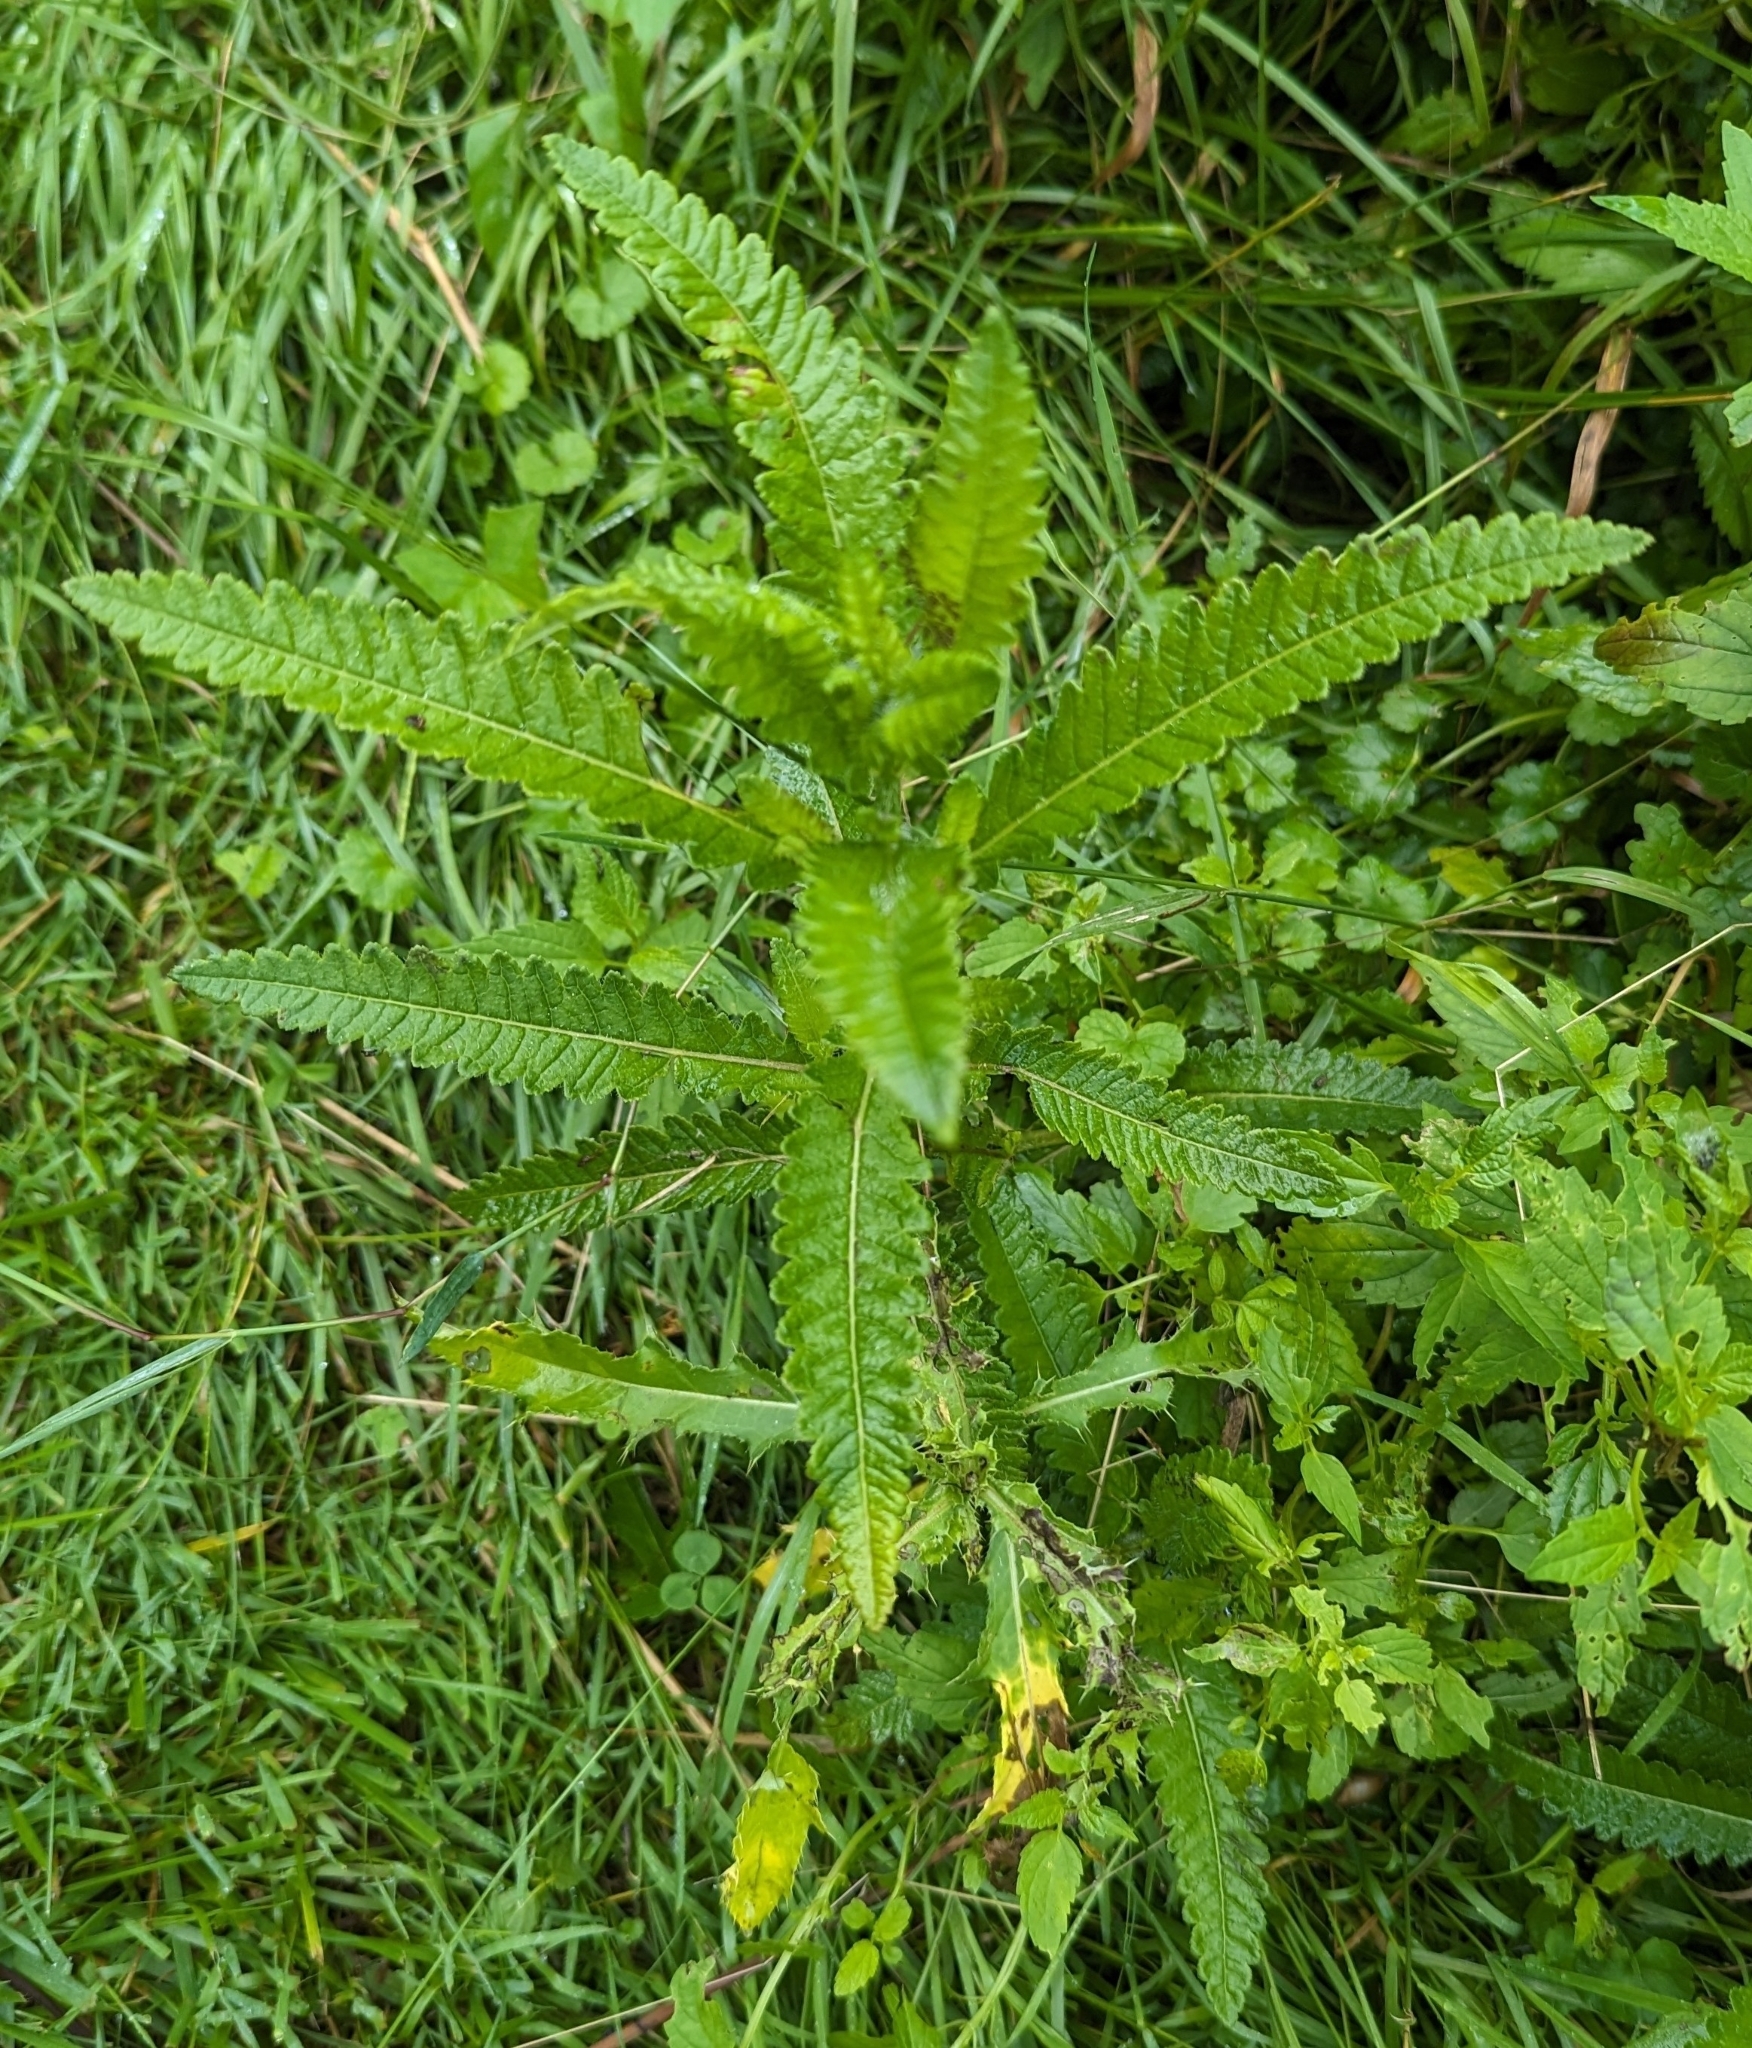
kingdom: Plantae
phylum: Tracheophyta
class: Magnoliopsida
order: Lamiales
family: Orobanchaceae
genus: Pedicularis
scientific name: Pedicularis lanceolata
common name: Swamp lousewort
